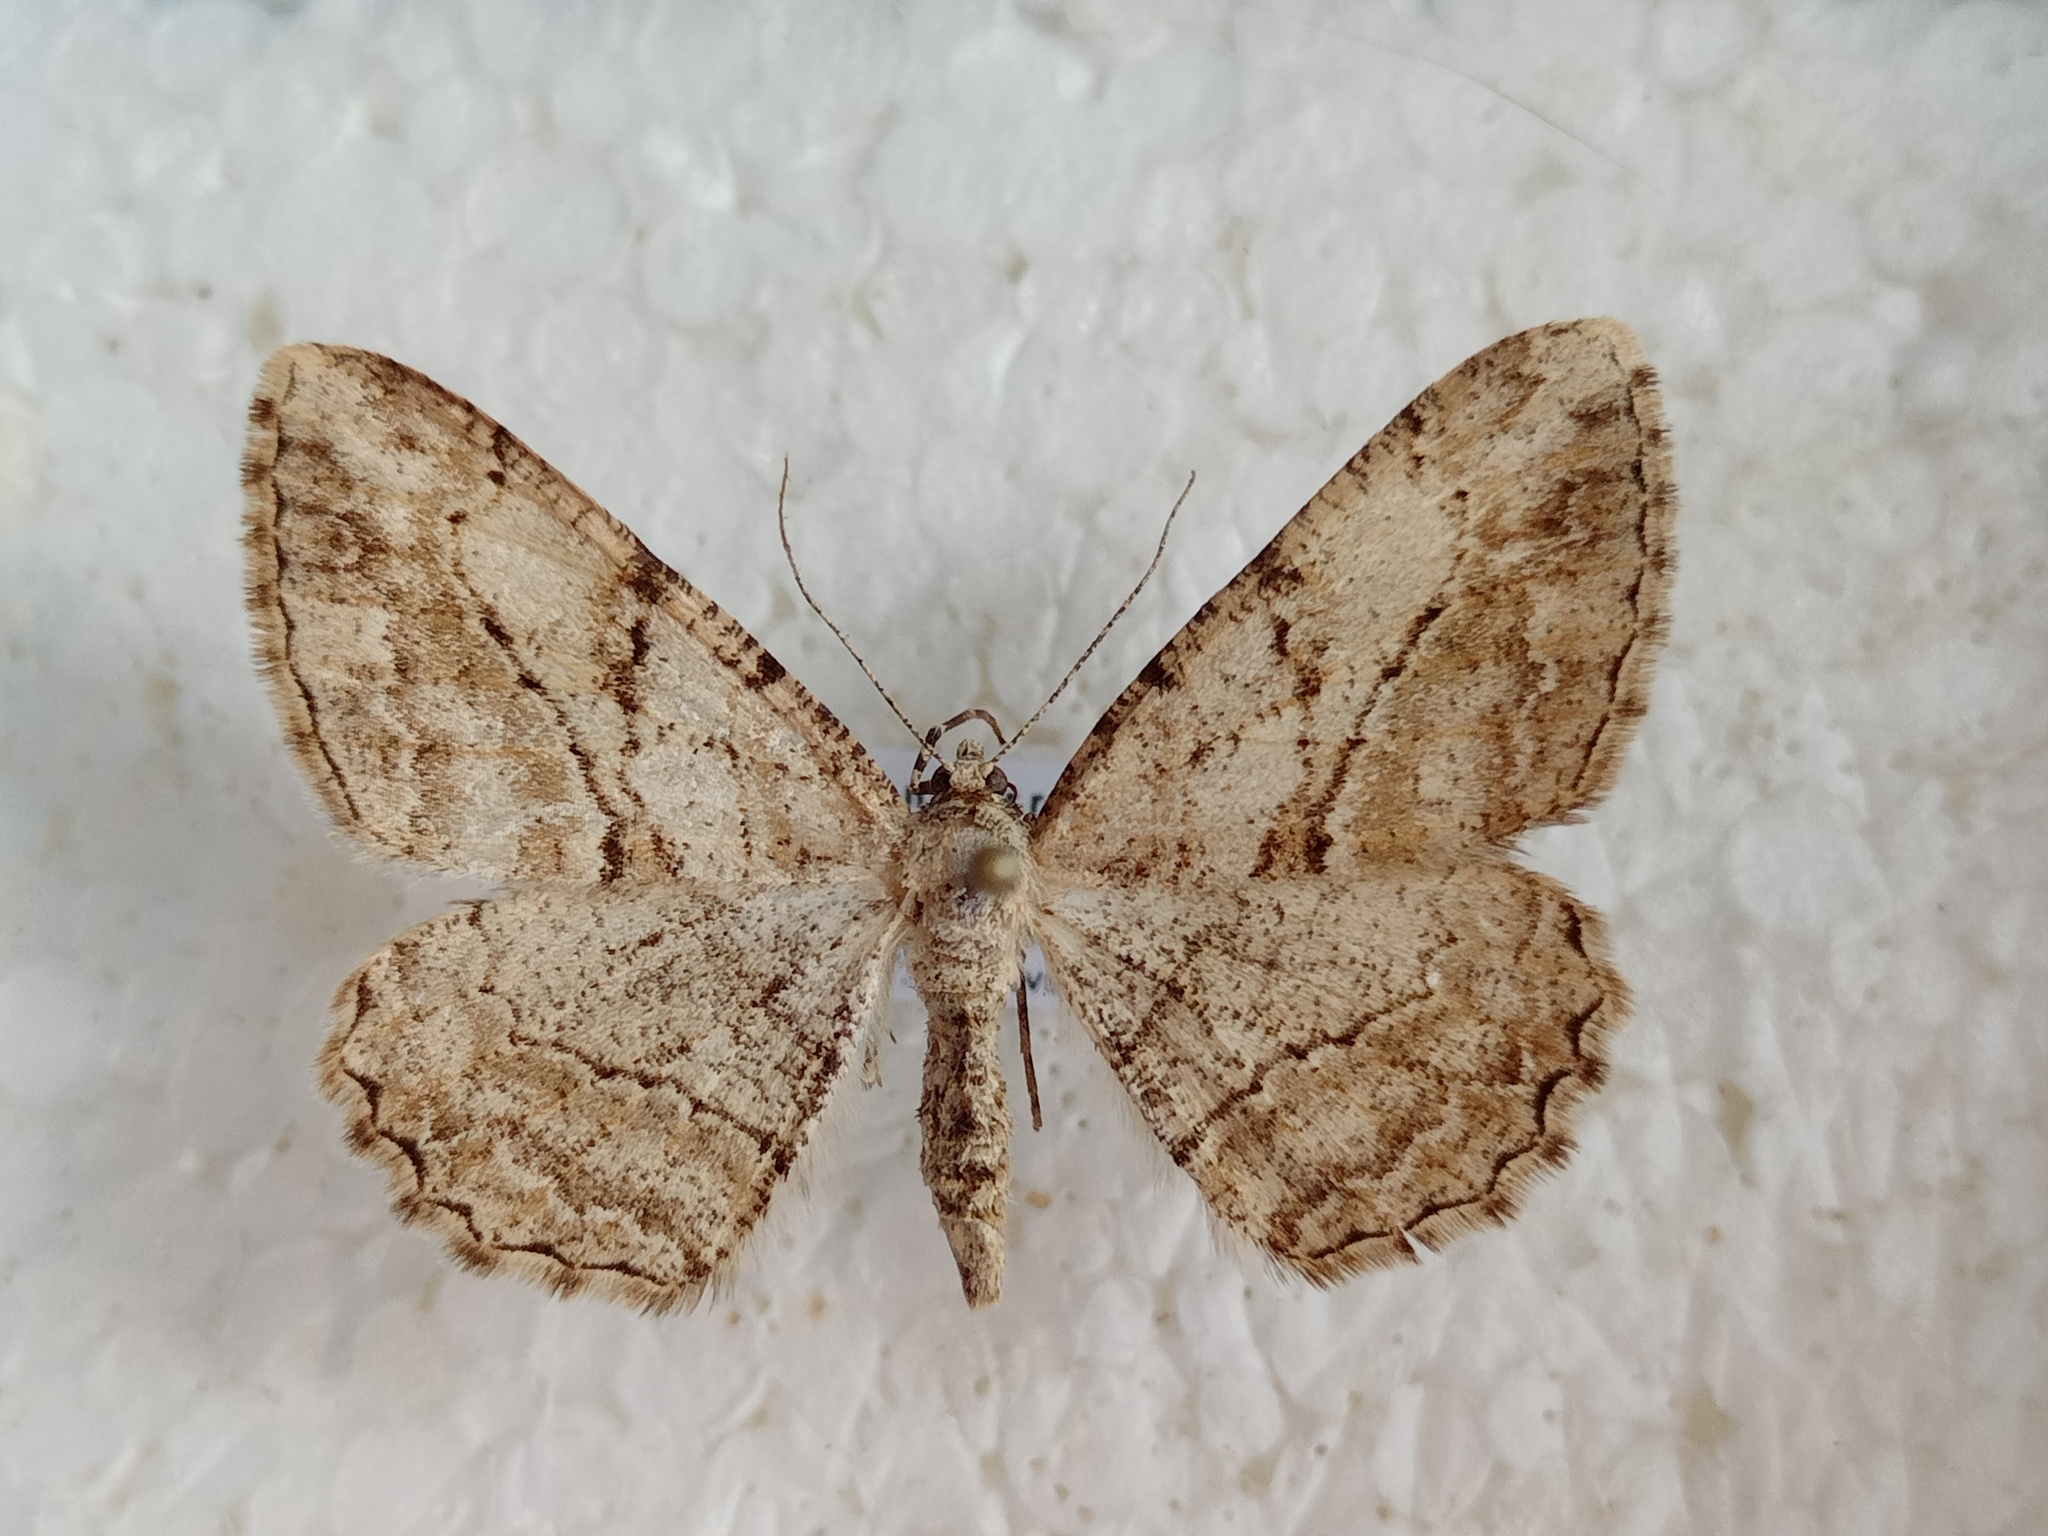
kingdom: Animalia
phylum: Arthropoda
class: Insecta
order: Lepidoptera
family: Geometridae
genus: Peribatodes
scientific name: Peribatodes perversaria
